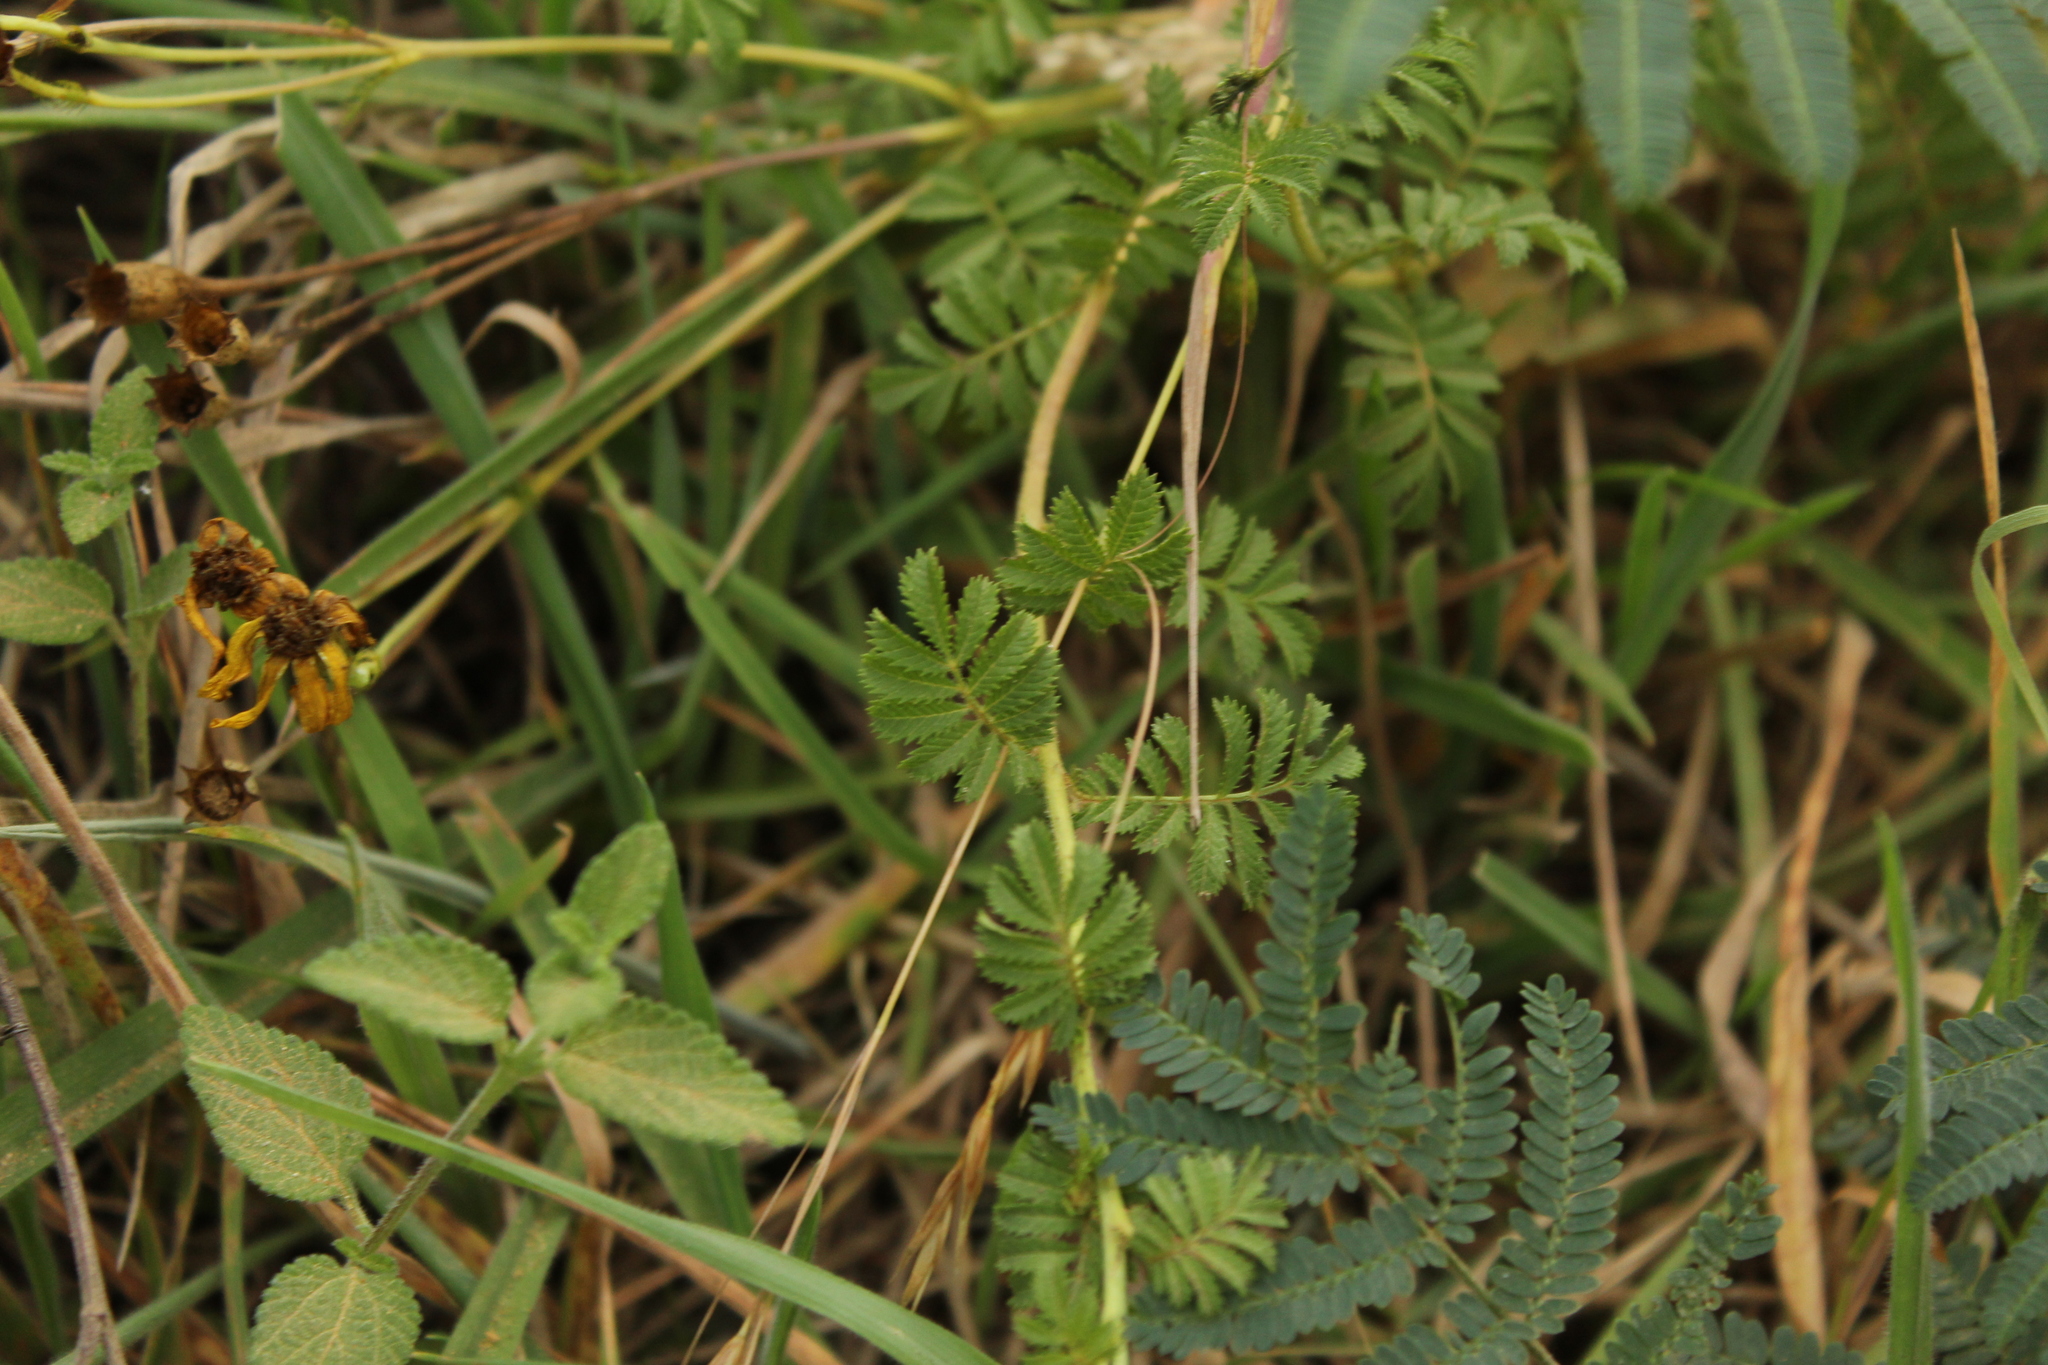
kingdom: Plantae
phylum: Tracheophyta
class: Magnoliopsida
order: Asterales
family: Asteraceae
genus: Tagetes
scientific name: Tagetes zypaquirensis
